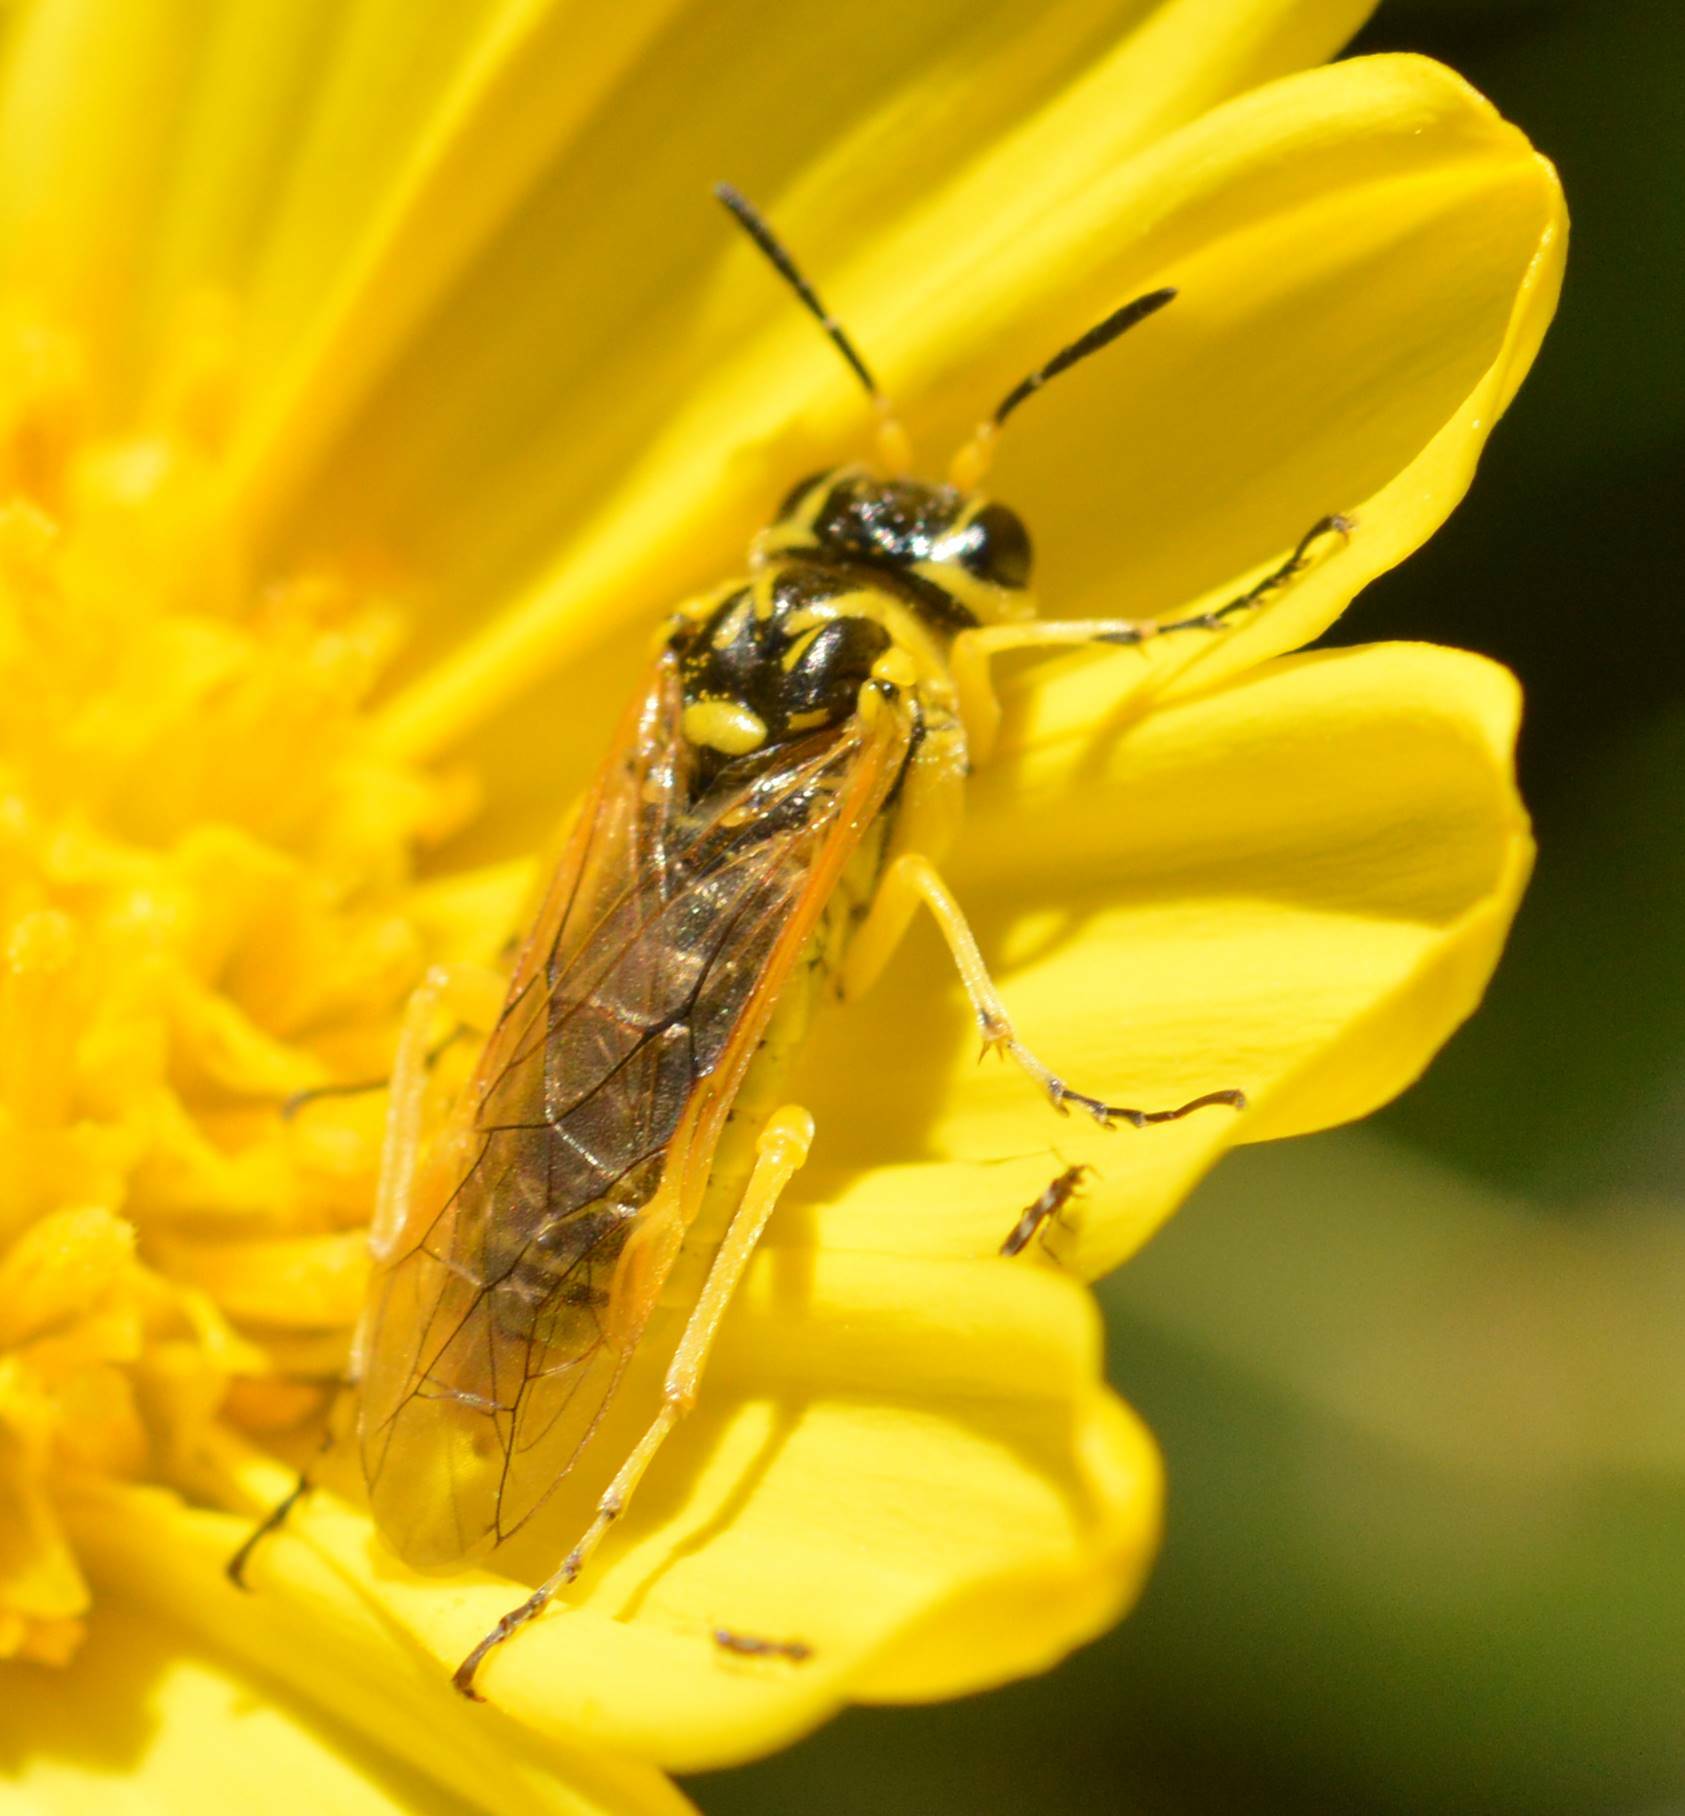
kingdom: Animalia
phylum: Arthropoda
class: Insecta
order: Hymenoptera
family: Tenthredinidae
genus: Tenthredo
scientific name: Tenthredo
